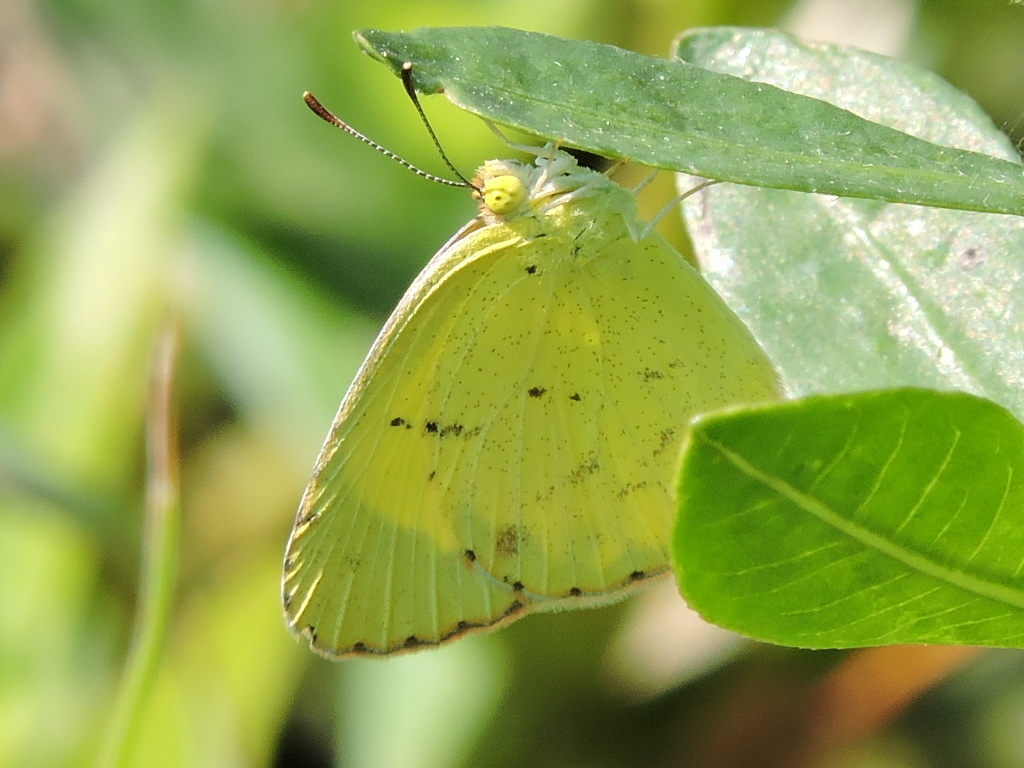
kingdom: Animalia
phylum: Arthropoda
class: Insecta
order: Lepidoptera
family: Pieridae
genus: Pyrisitia
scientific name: Pyrisitia lisa
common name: Little yellow
